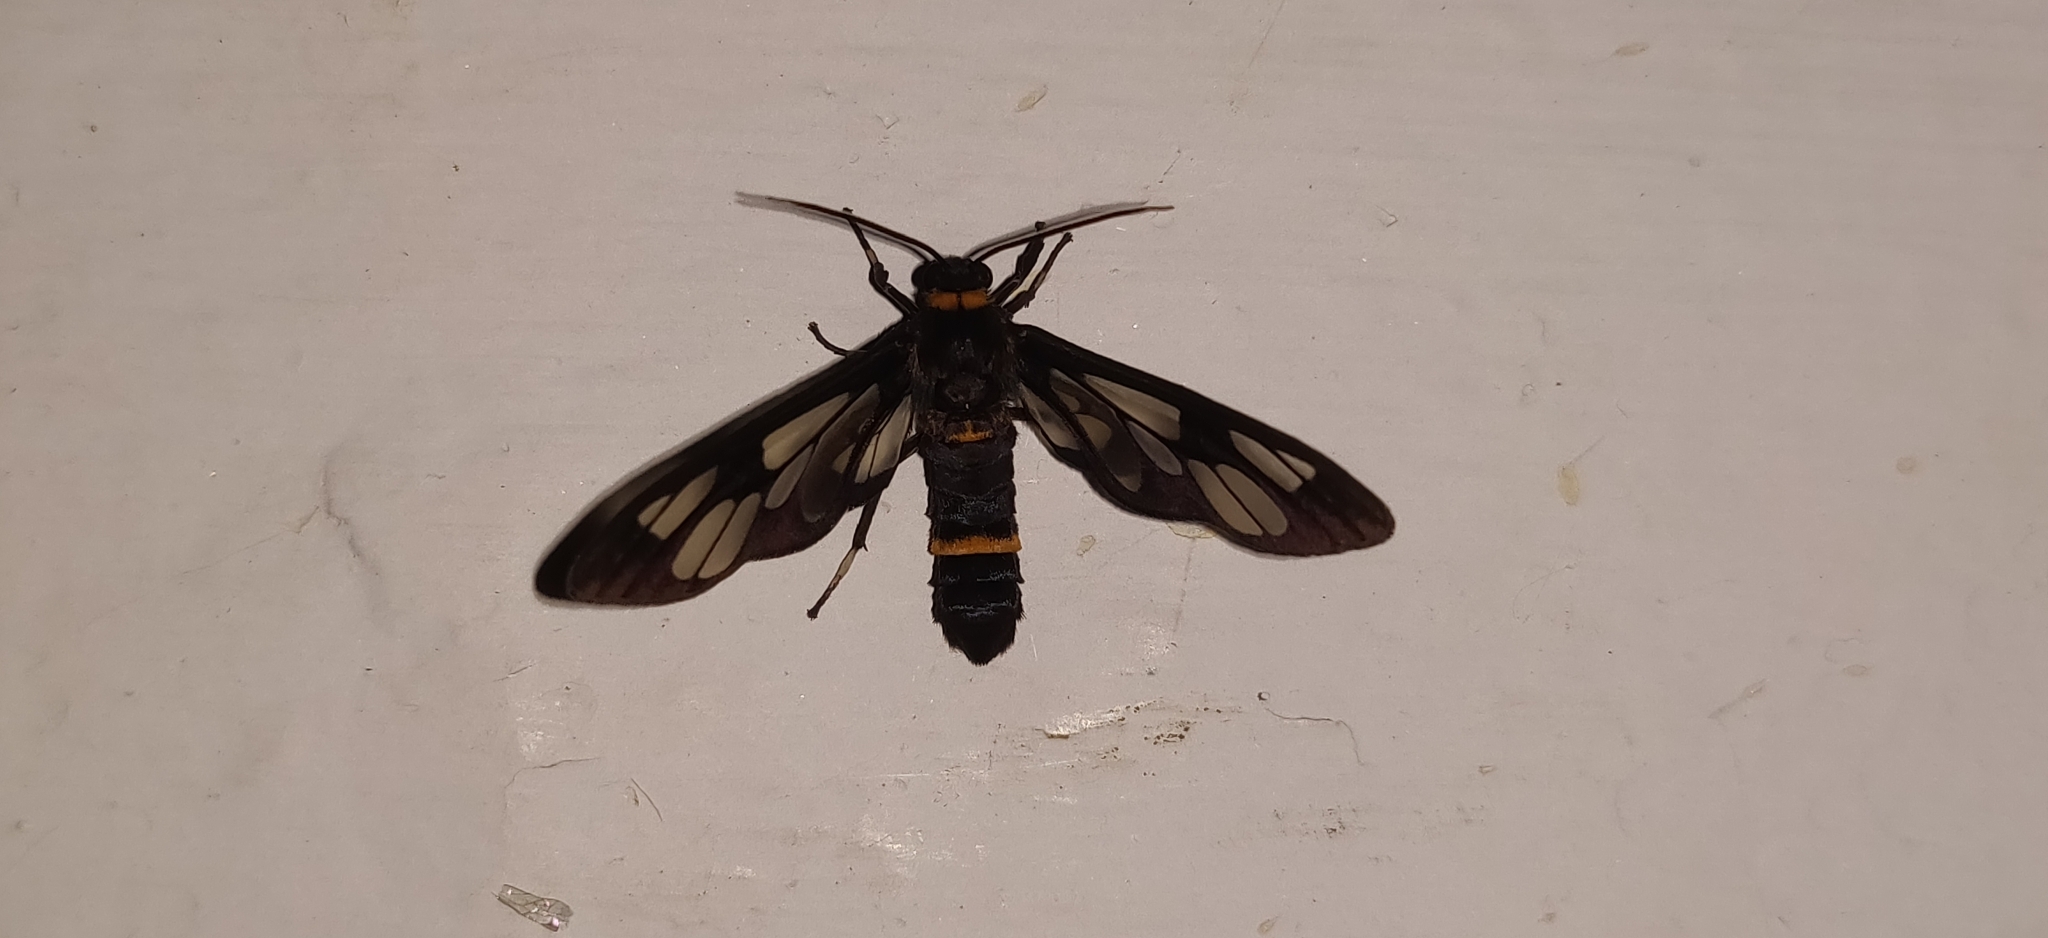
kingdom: Animalia
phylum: Arthropoda
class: Insecta
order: Lepidoptera
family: Erebidae
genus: Syntomoides
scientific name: Syntomoides imaon
